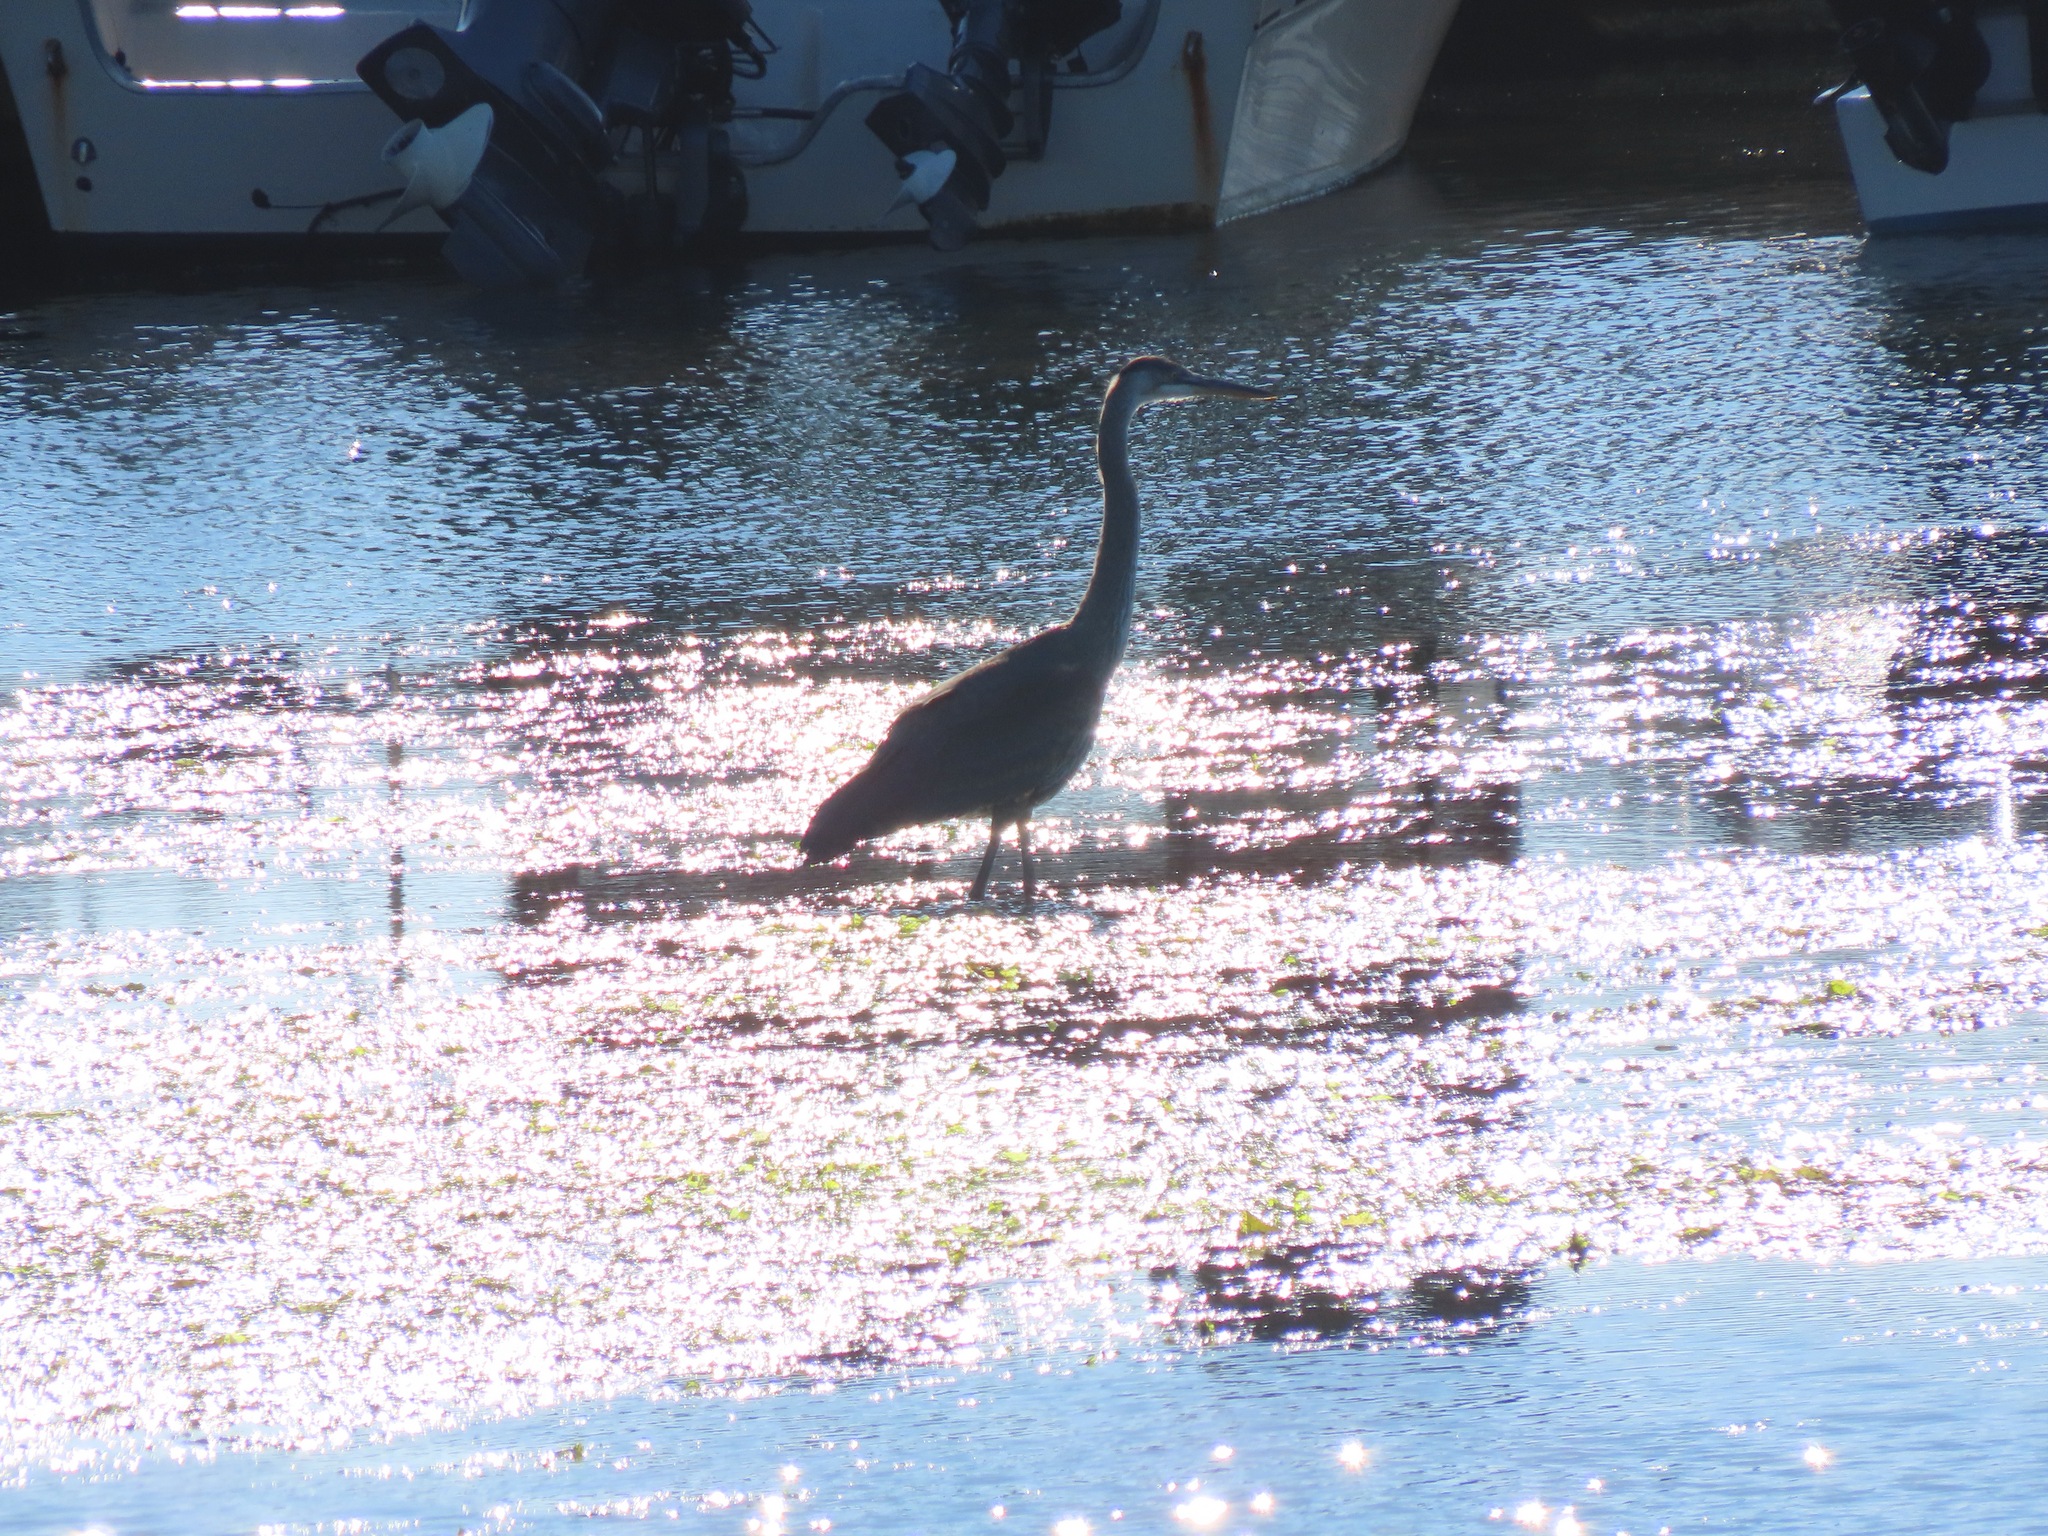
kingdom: Animalia
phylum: Chordata
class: Aves
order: Pelecaniformes
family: Ardeidae
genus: Ardea
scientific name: Ardea herodias
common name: Great blue heron
